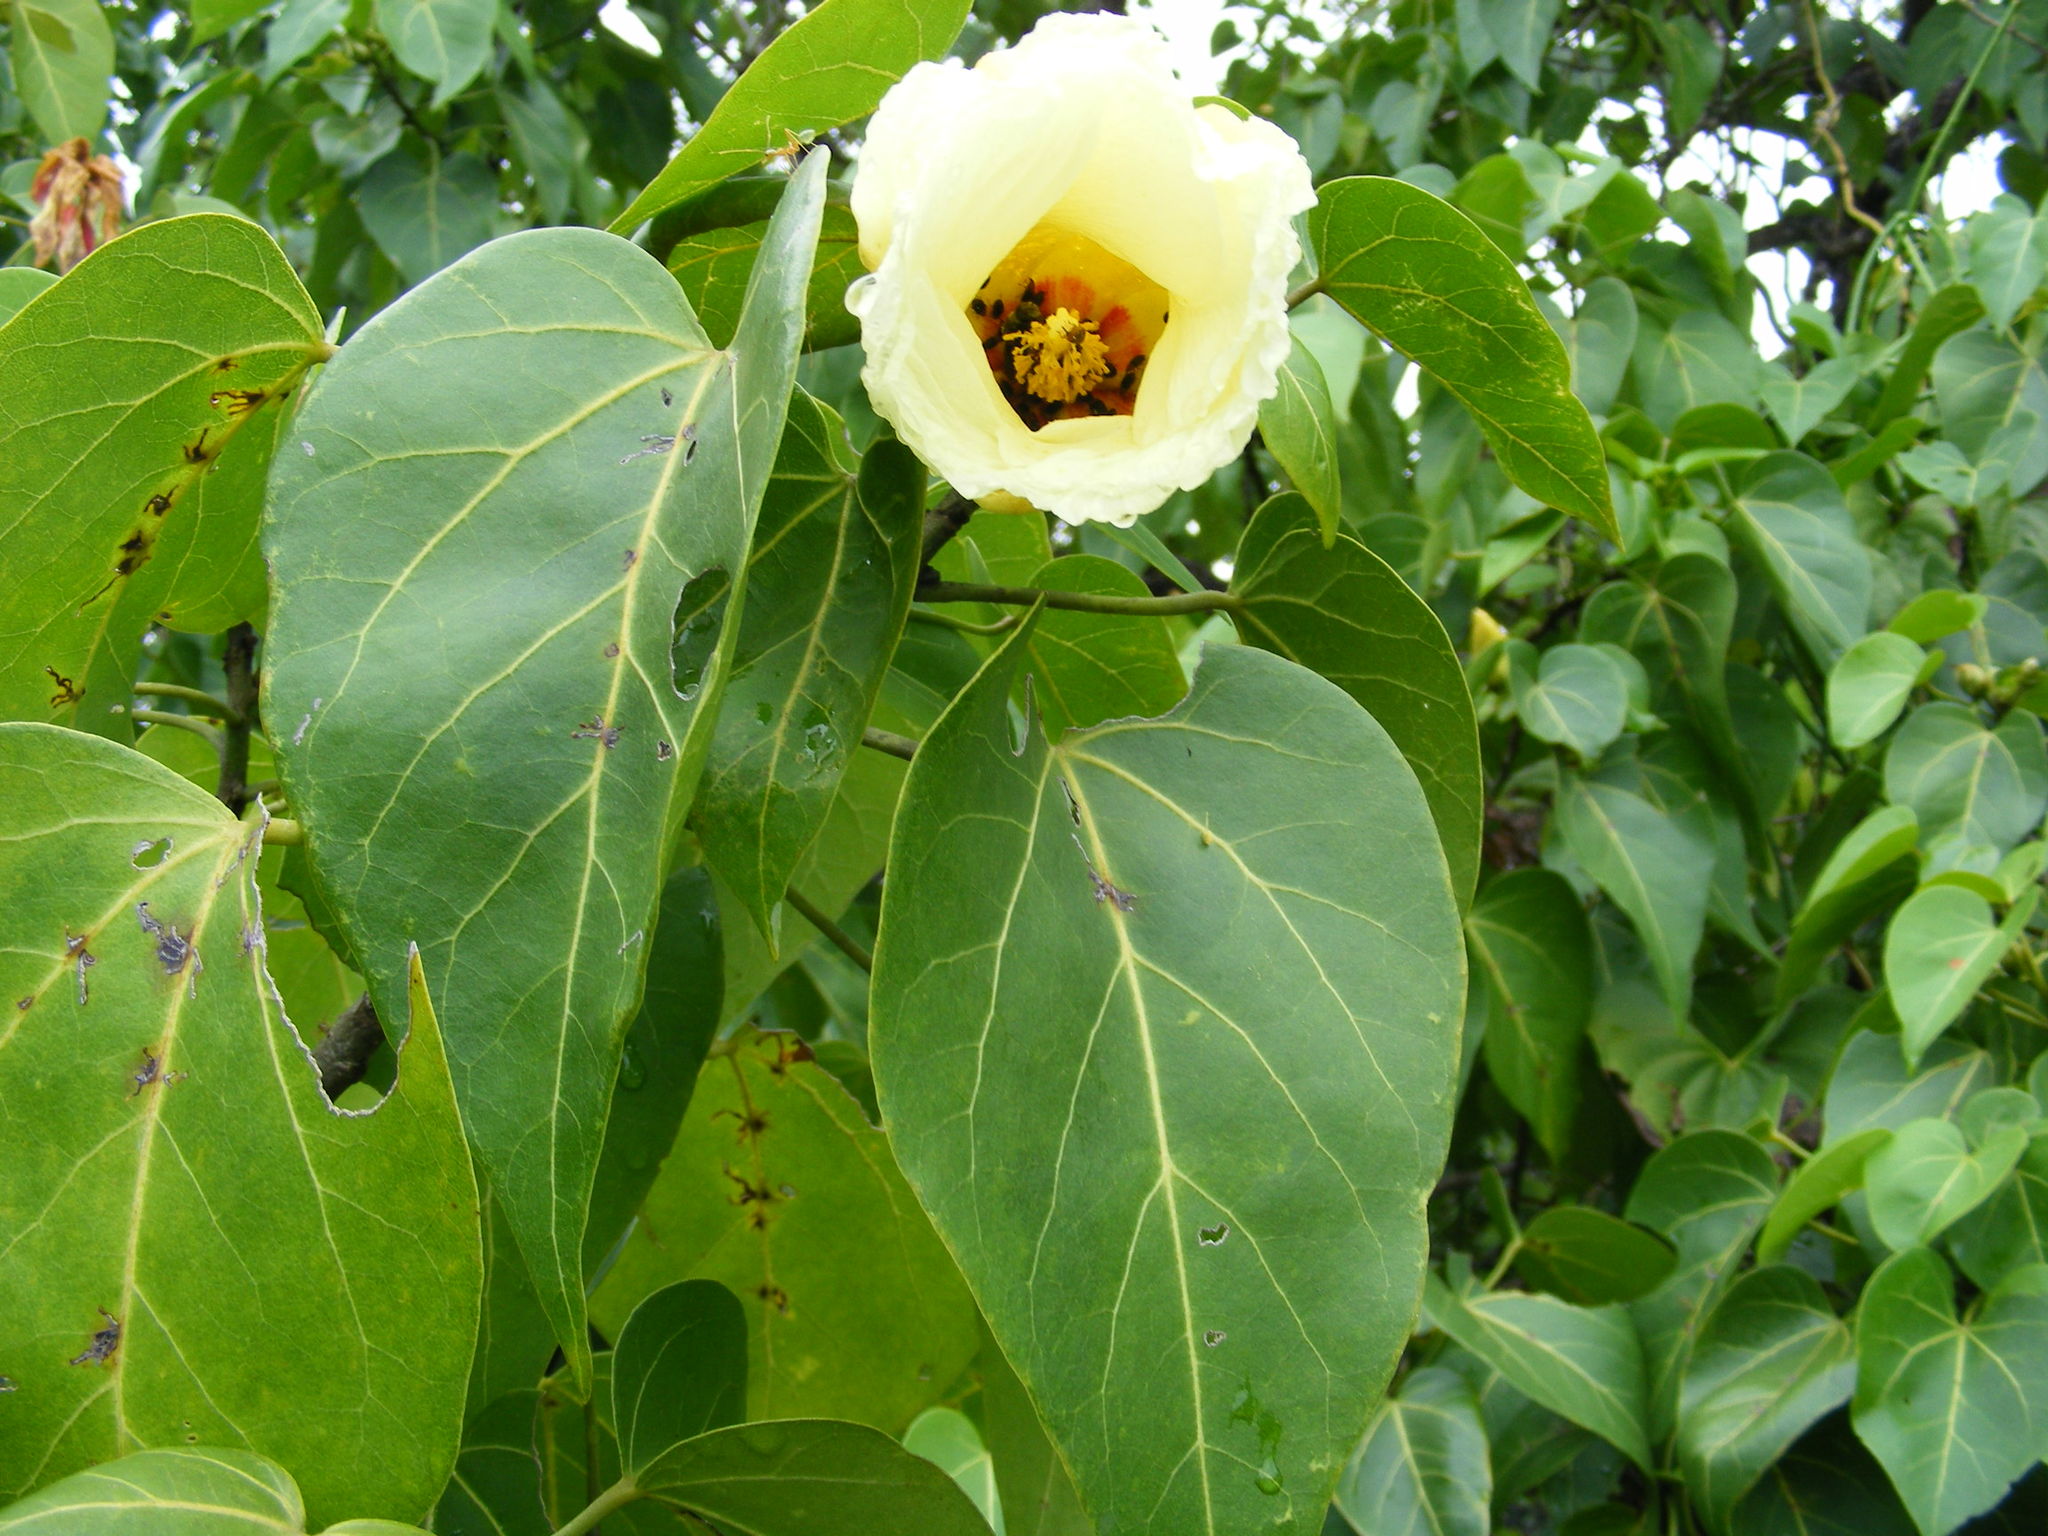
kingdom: Plantae
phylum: Tracheophyta
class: Magnoliopsida
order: Malvales
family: Malvaceae
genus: Thespesia
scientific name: Thespesia populnea
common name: Seaside mahoe
